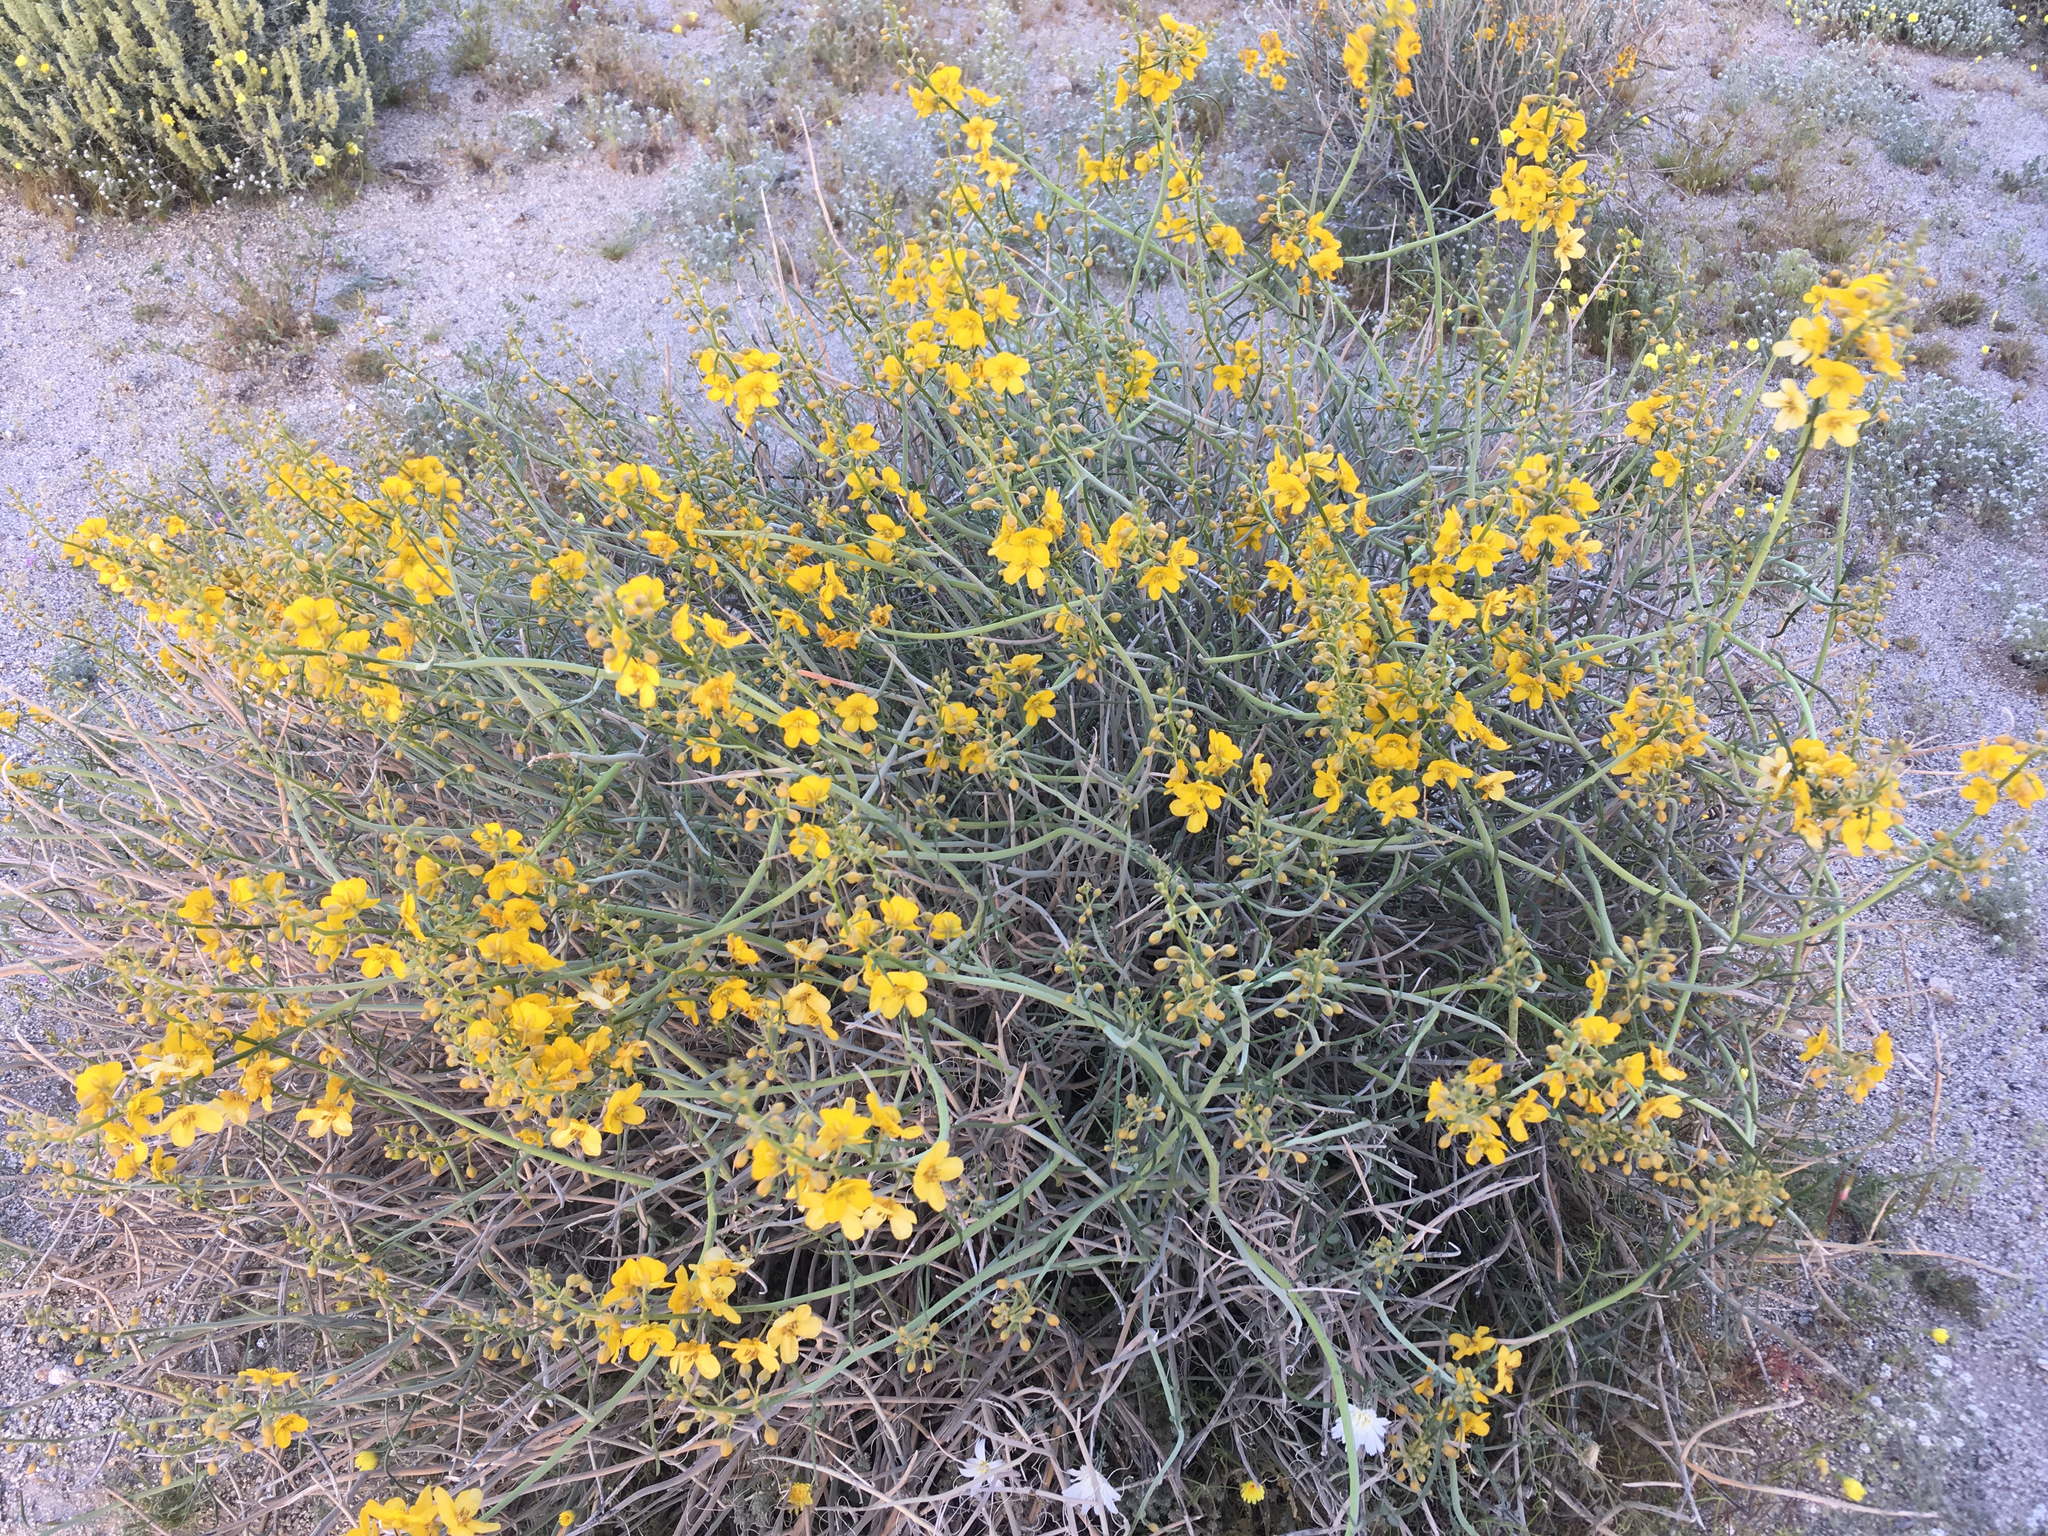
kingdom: Plantae
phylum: Tracheophyta
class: Magnoliopsida
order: Fabales
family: Fabaceae
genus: Senna
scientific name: Senna armata
